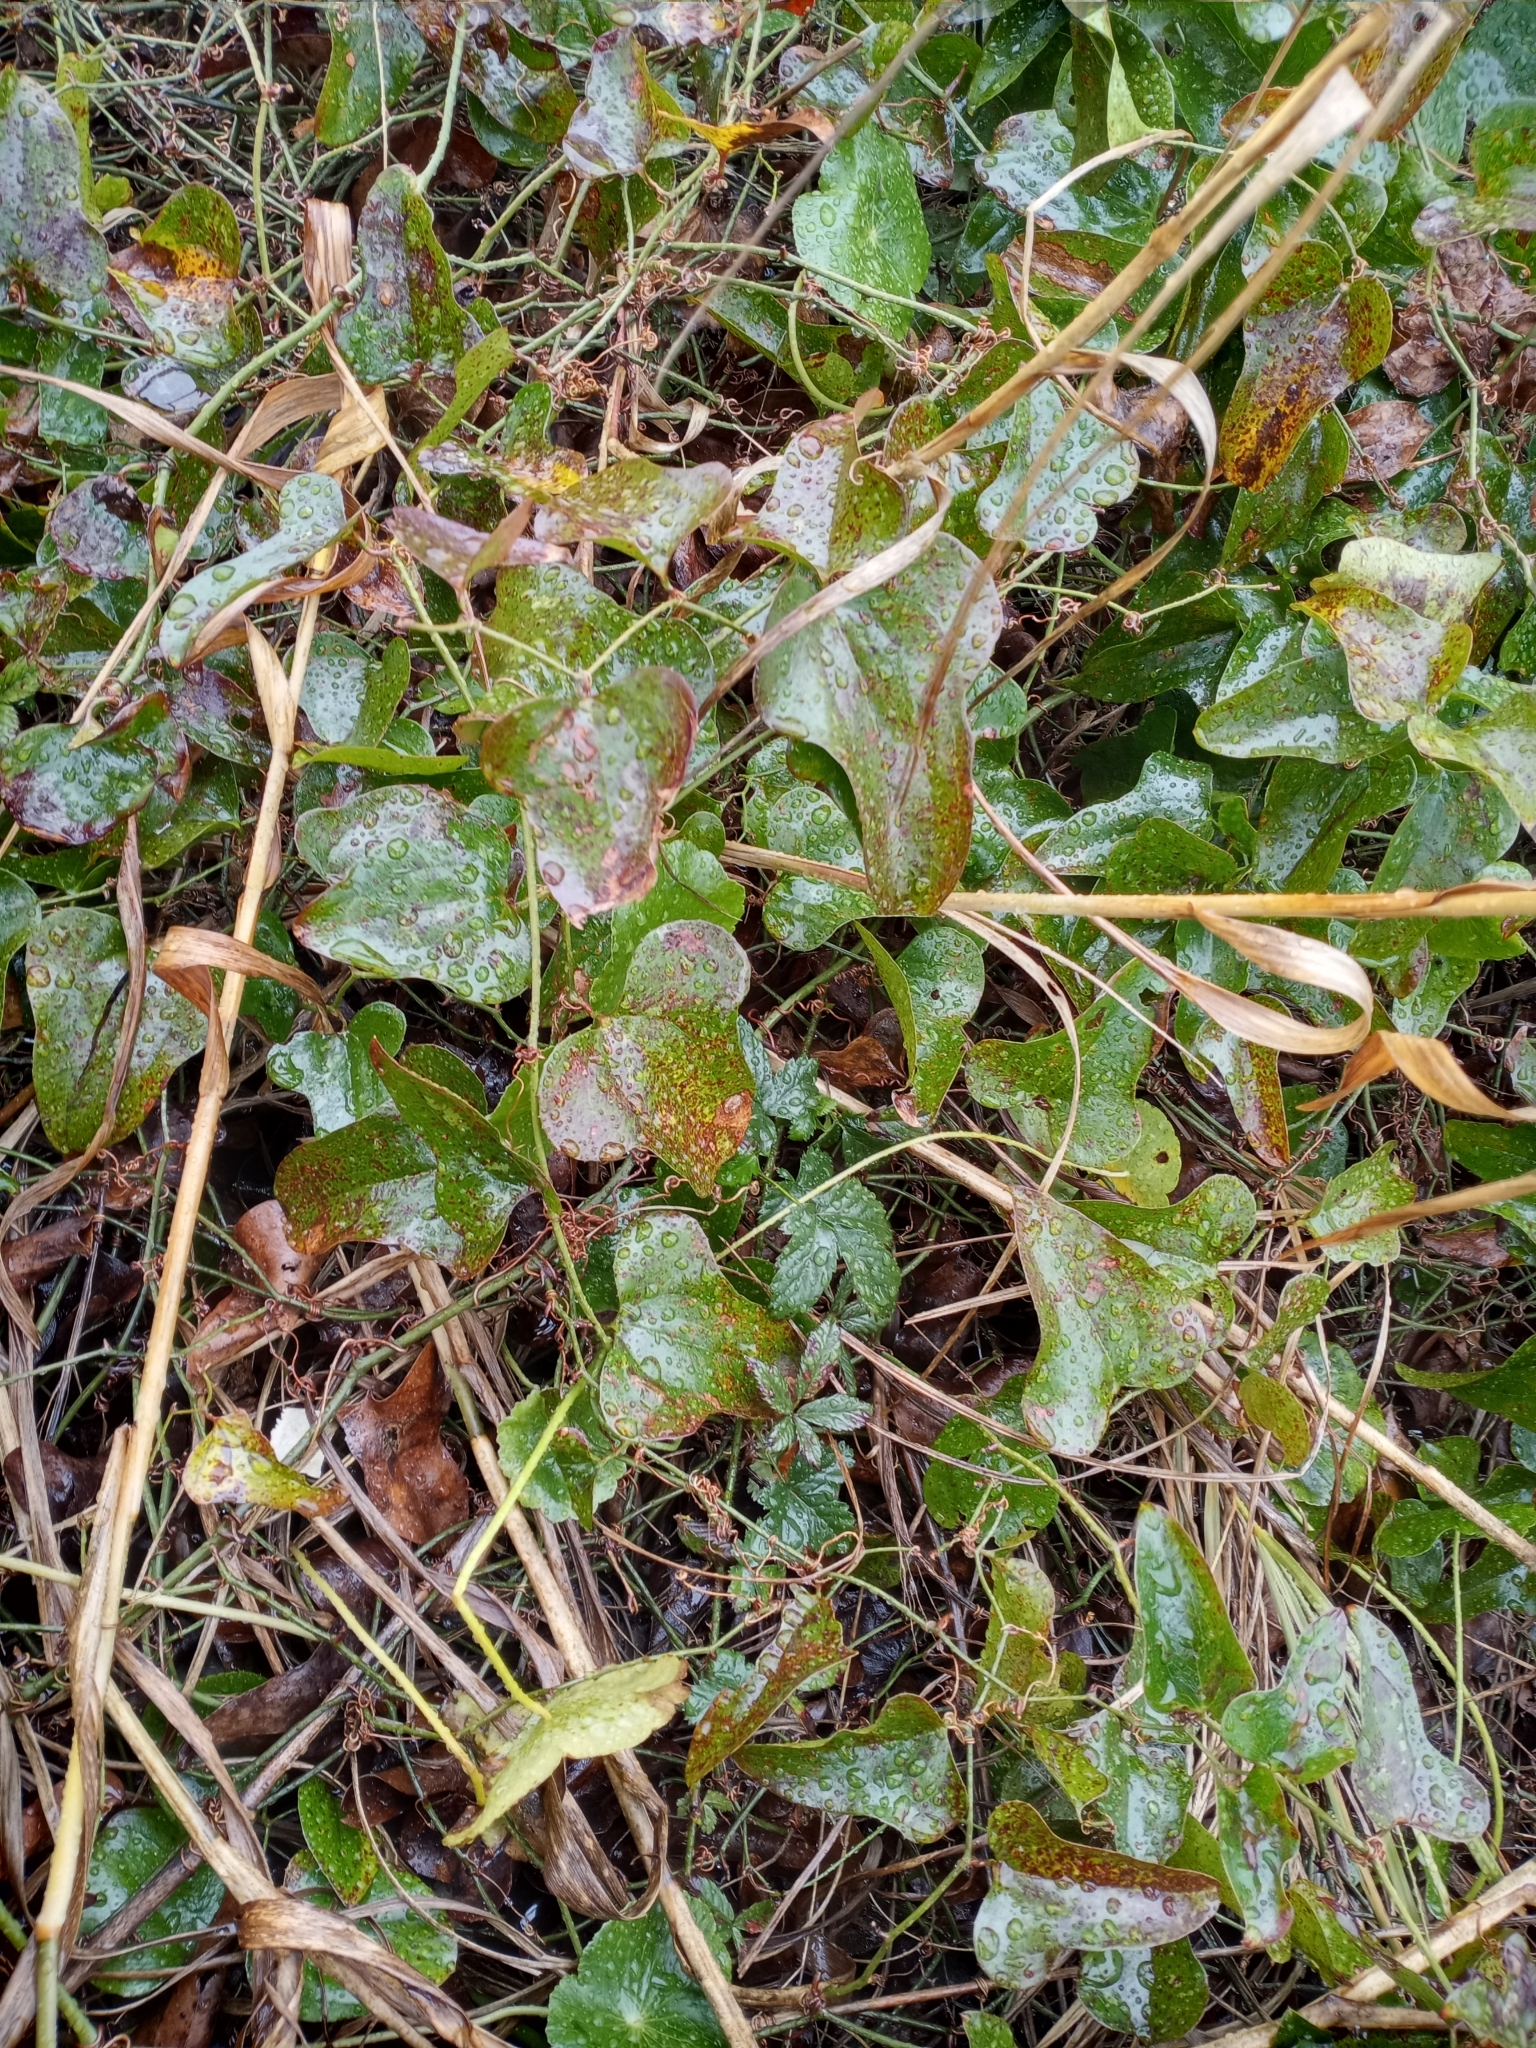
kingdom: Plantae
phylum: Tracheophyta
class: Liliopsida
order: Liliales
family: Smilacaceae
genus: Smilax
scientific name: Smilax bona-nox
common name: Catbrier
